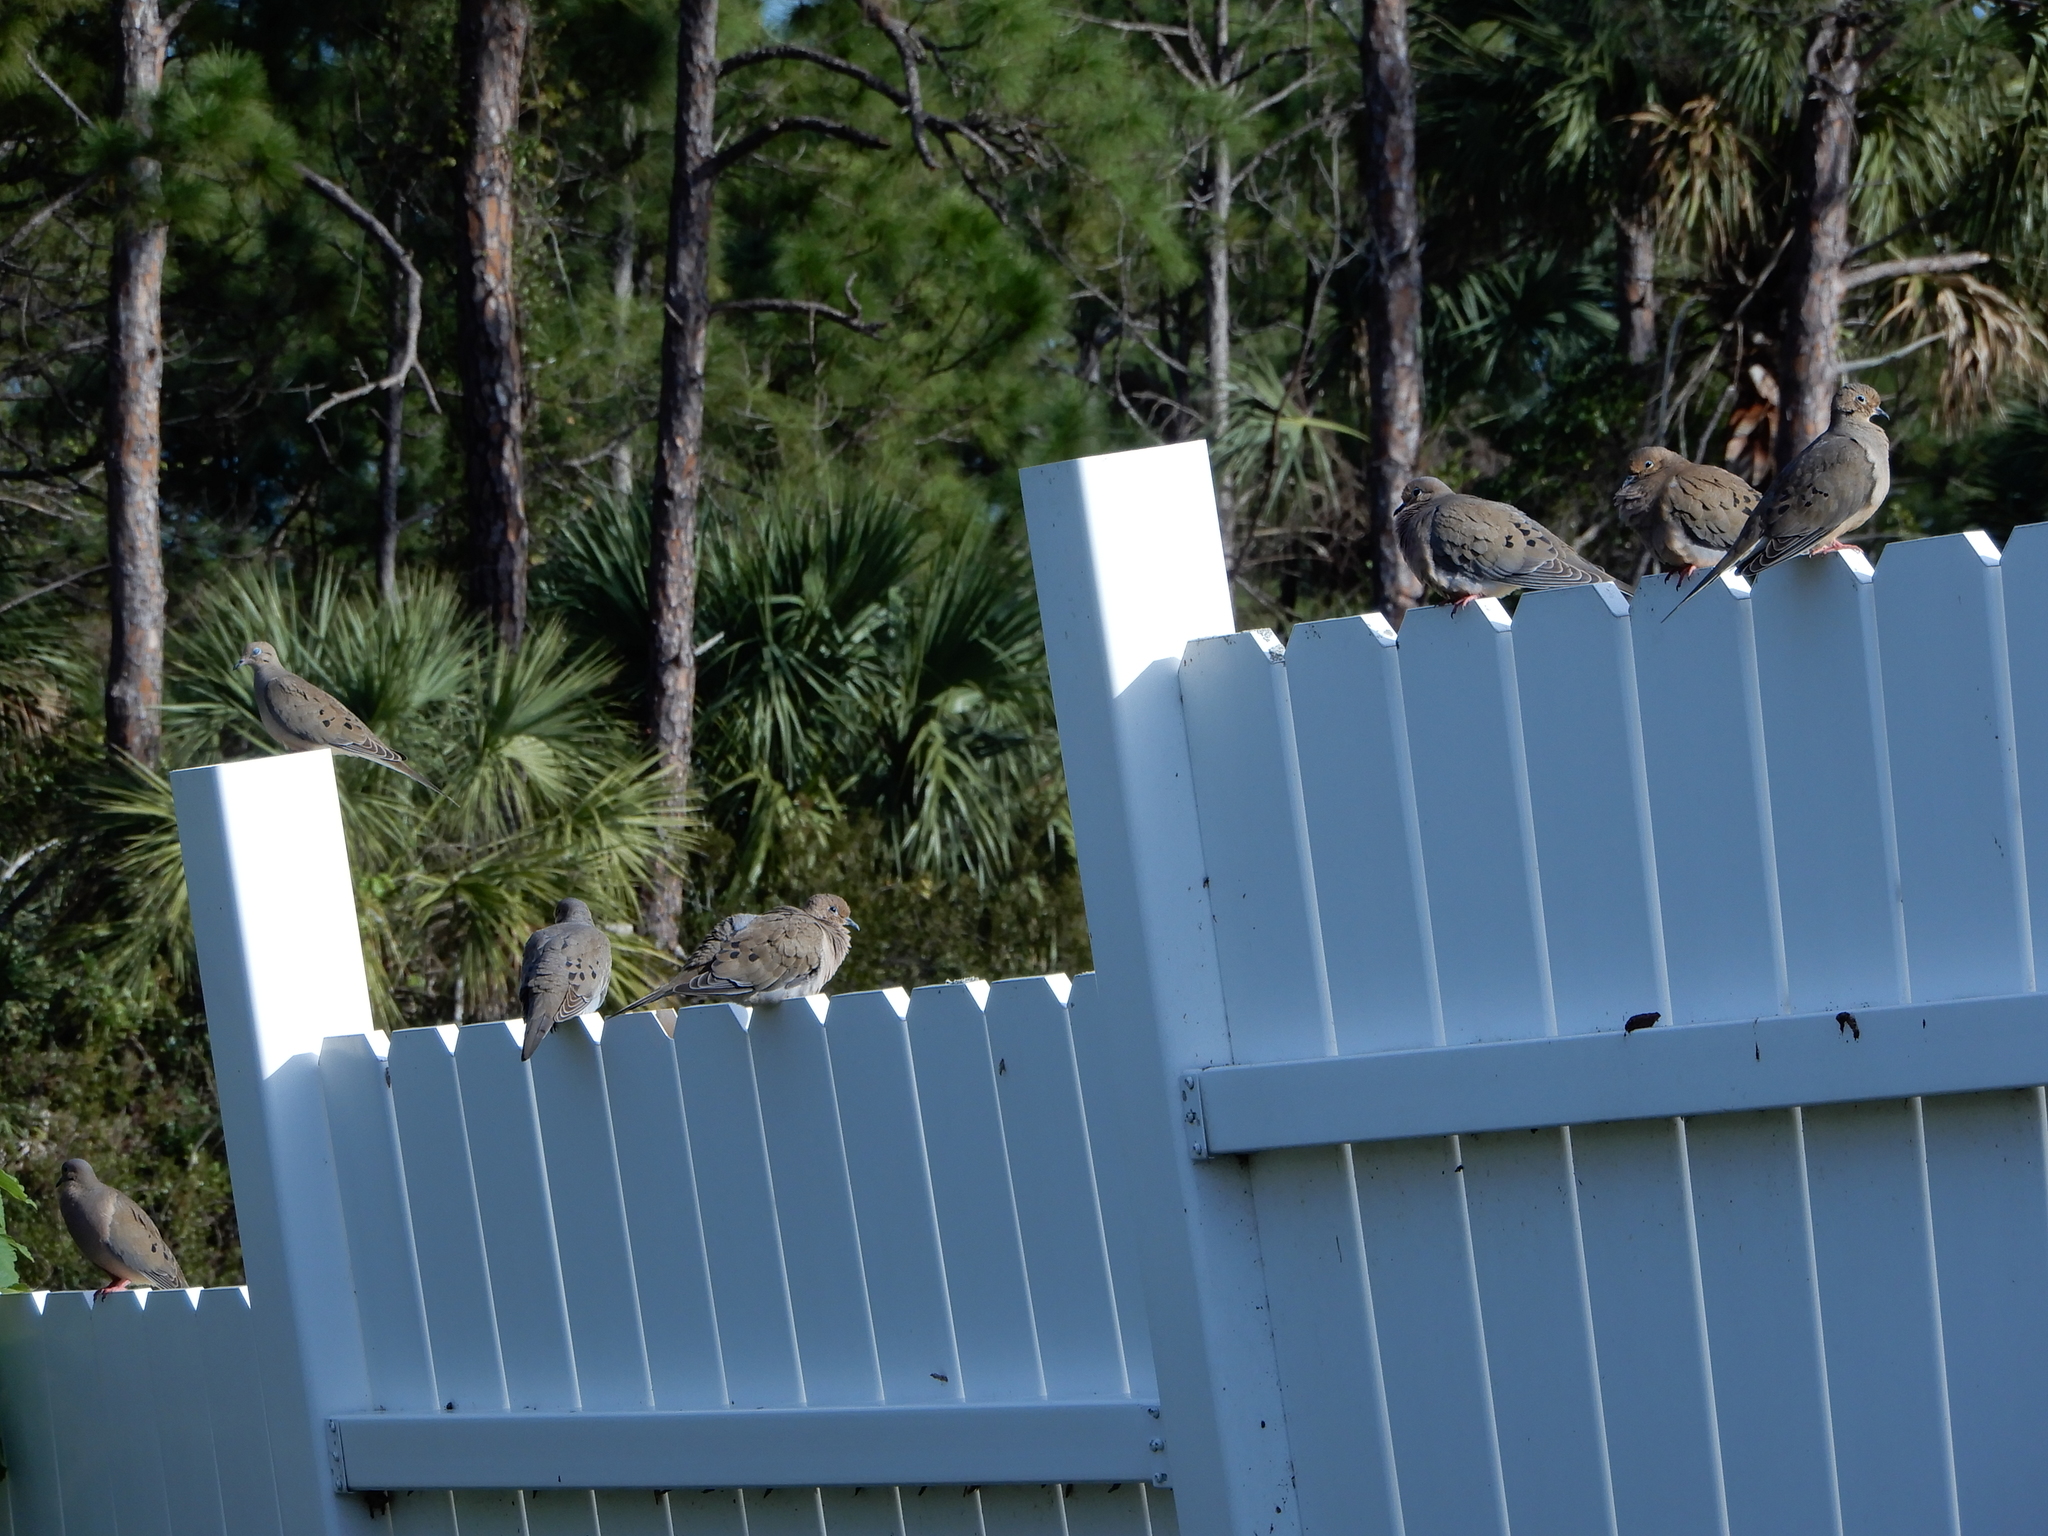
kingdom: Animalia
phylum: Chordata
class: Aves
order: Columbiformes
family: Columbidae
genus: Zenaida
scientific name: Zenaida macroura
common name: Mourning dove
